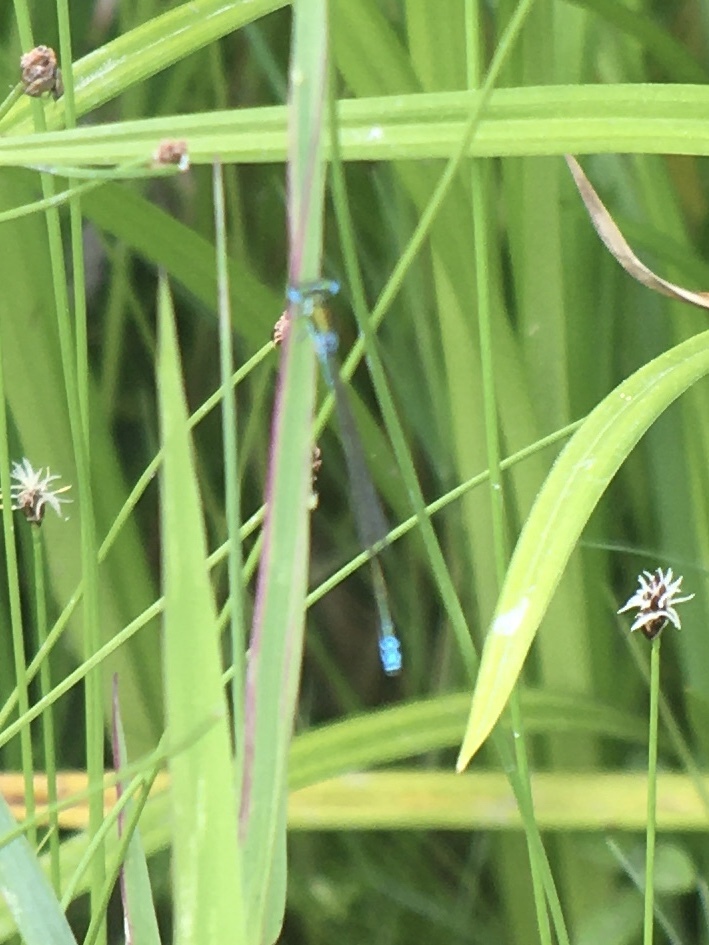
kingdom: Animalia
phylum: Arthropoda
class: Insecta
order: Odonata
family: Coenagrionidae
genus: Nehalennia
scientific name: Nehalennia irene
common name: Sedge sprite
